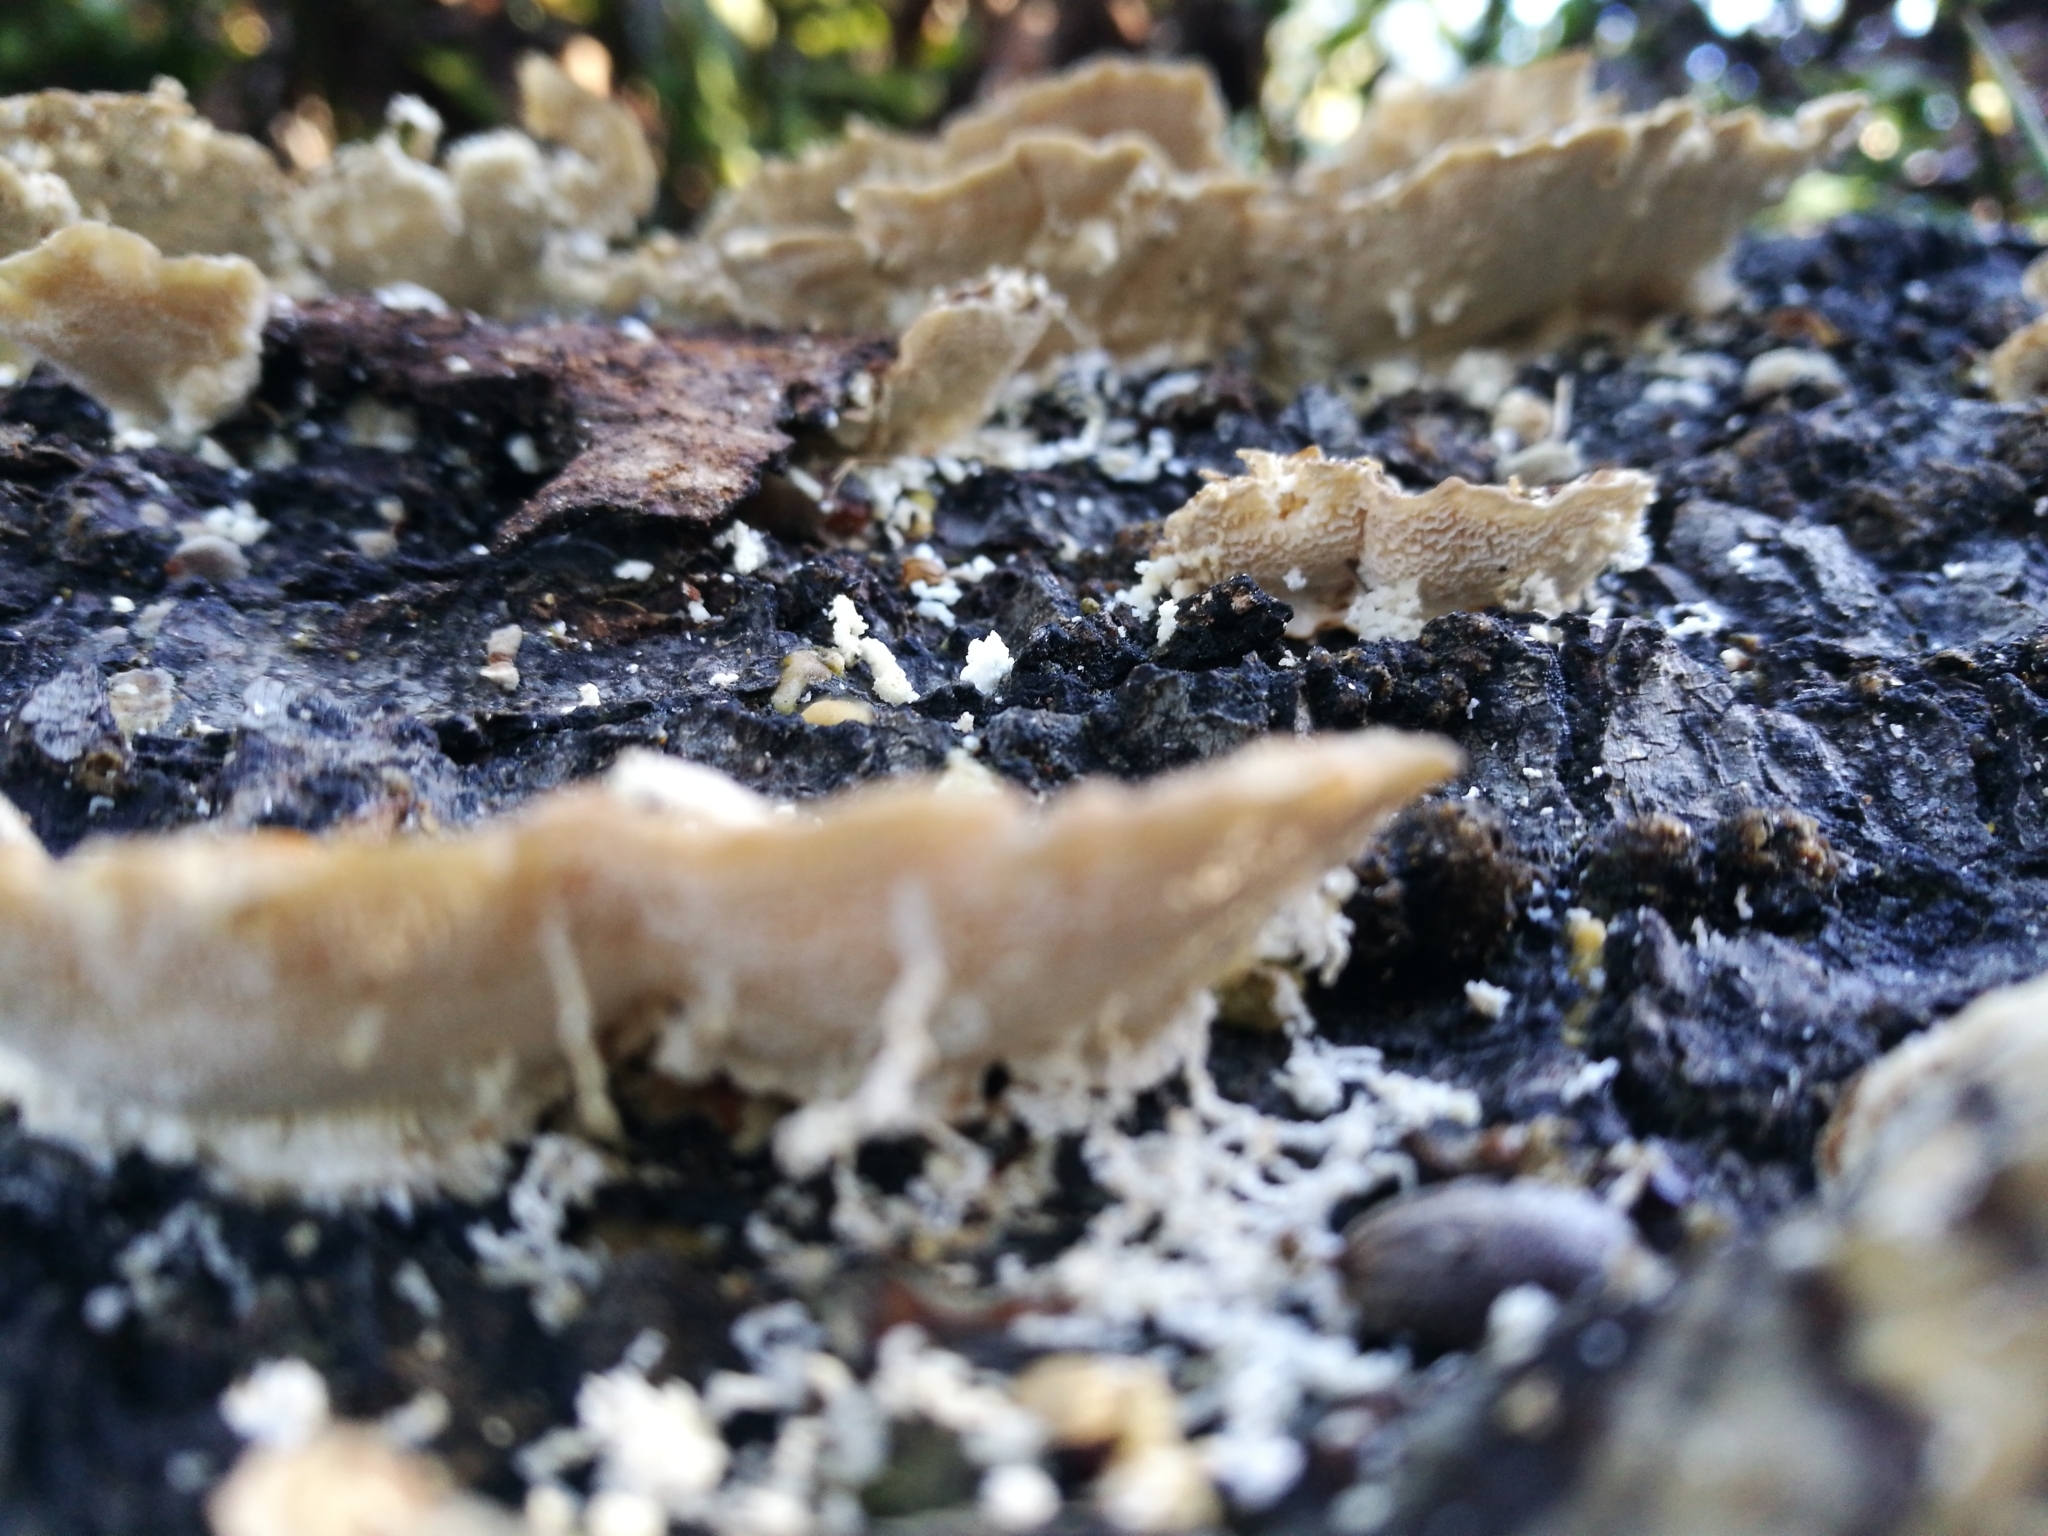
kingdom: Fungi
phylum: Basidiomycota
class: Agaricomycetes
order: Polyporales
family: Polyporaceae
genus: Trametes
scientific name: Trametes versicolor
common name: Turkeytail
